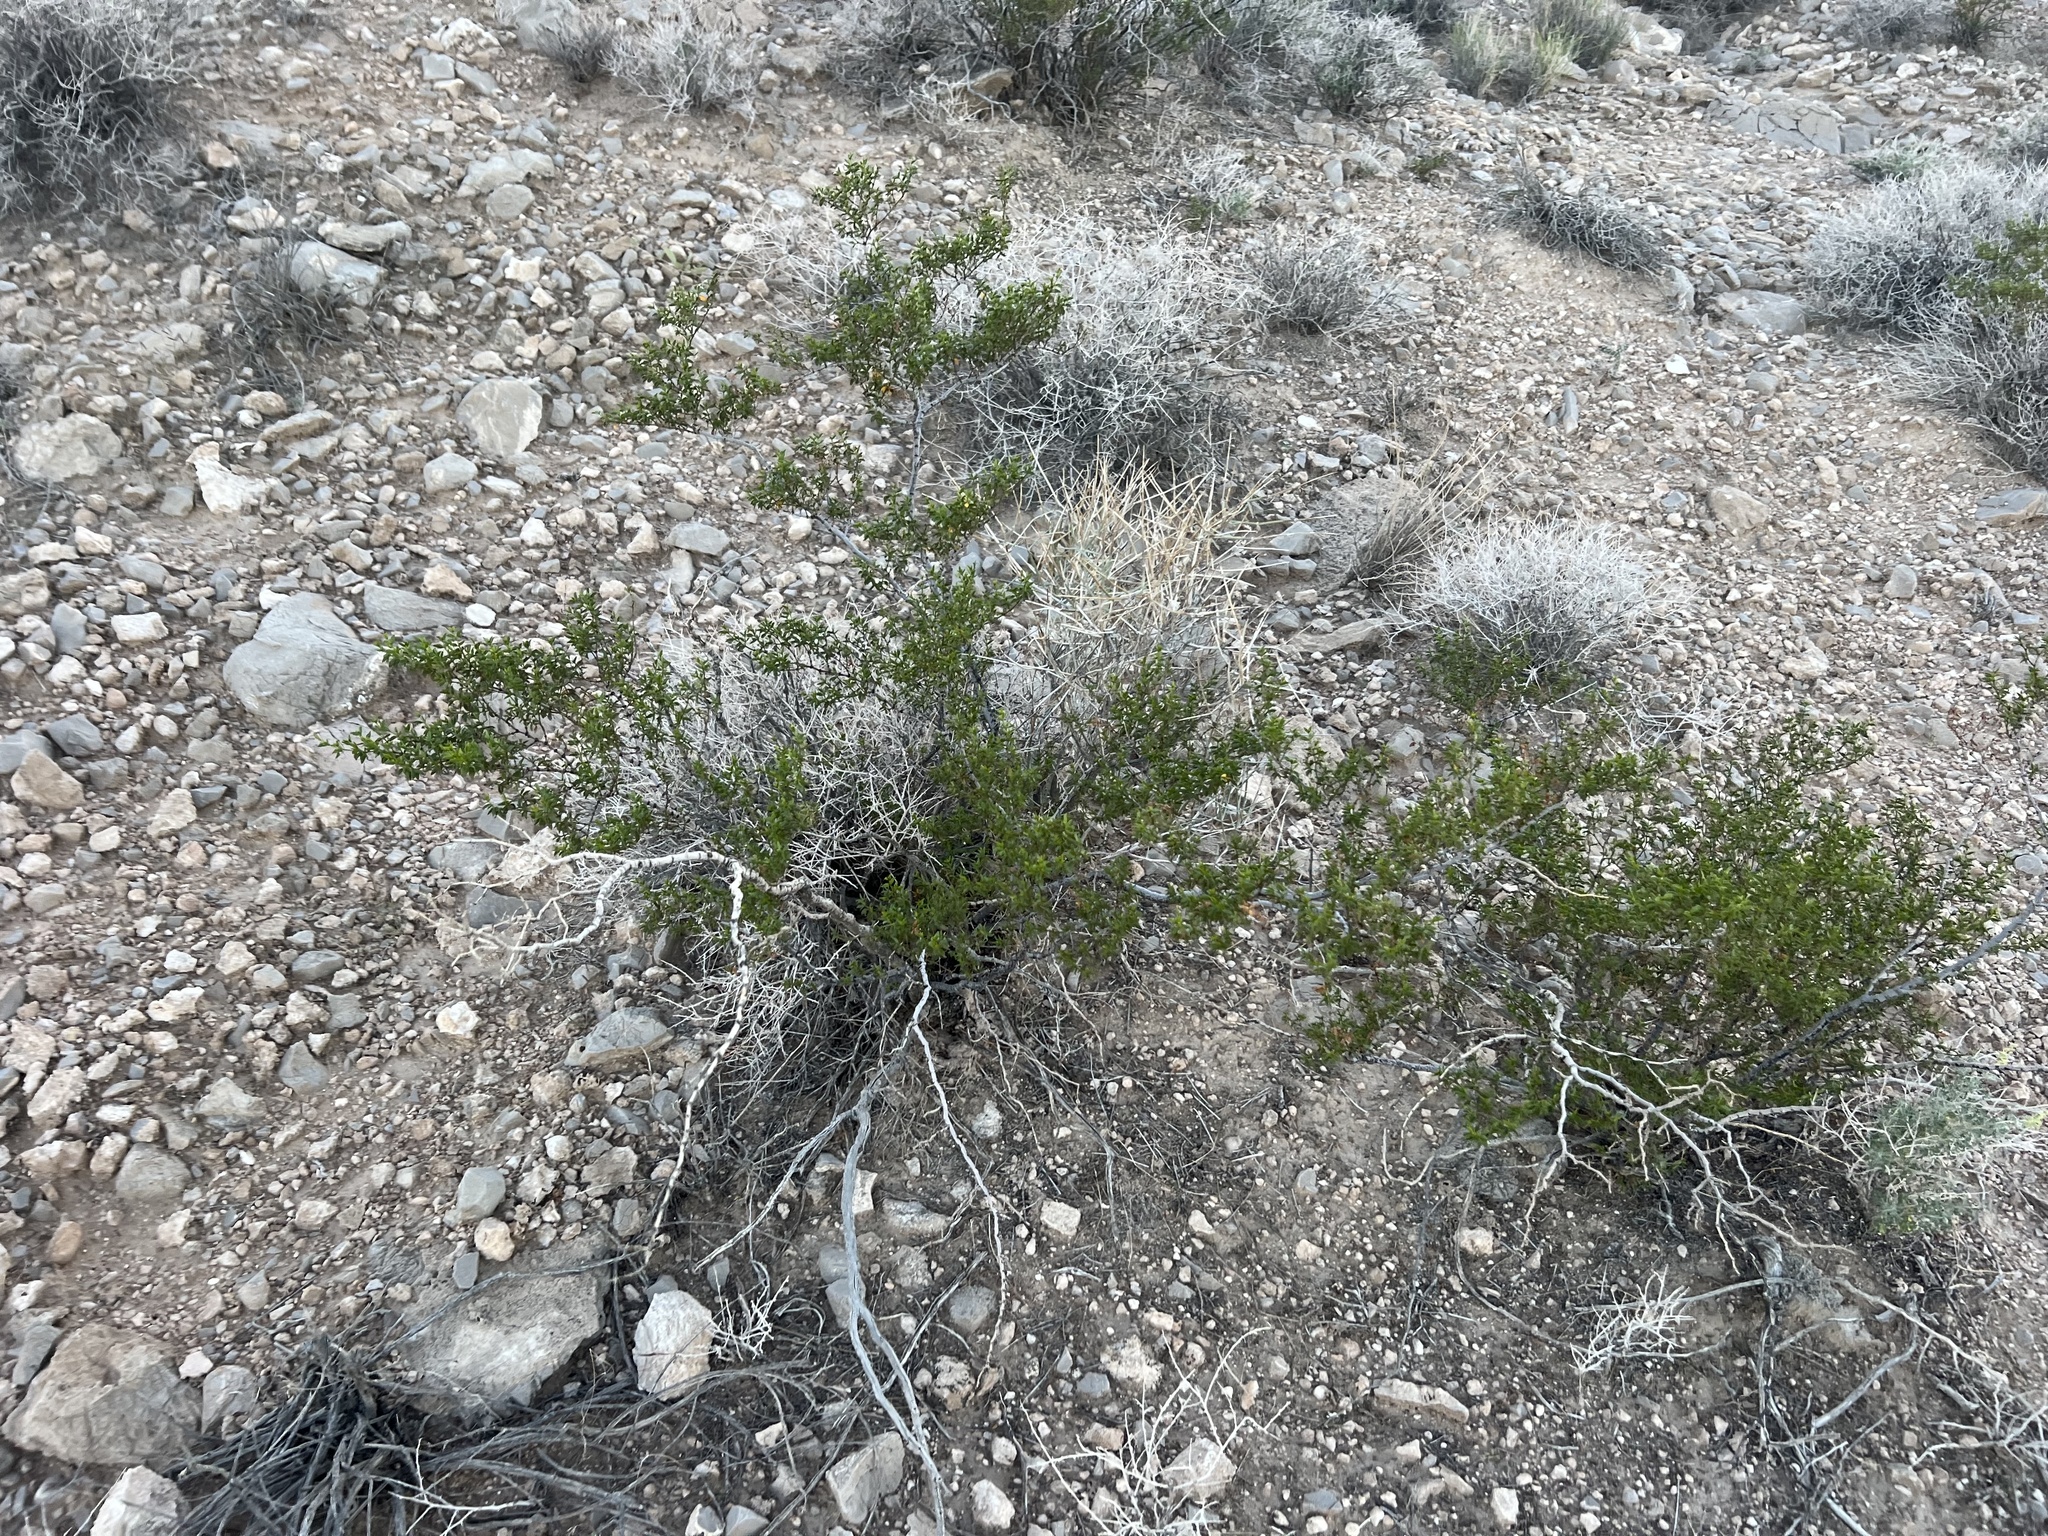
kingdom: Plantae
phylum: Tracheophyta
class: Magnoliopsida
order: Zygophyllales
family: Zygophyllaceae
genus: Larrea
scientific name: Larrea tridentata
